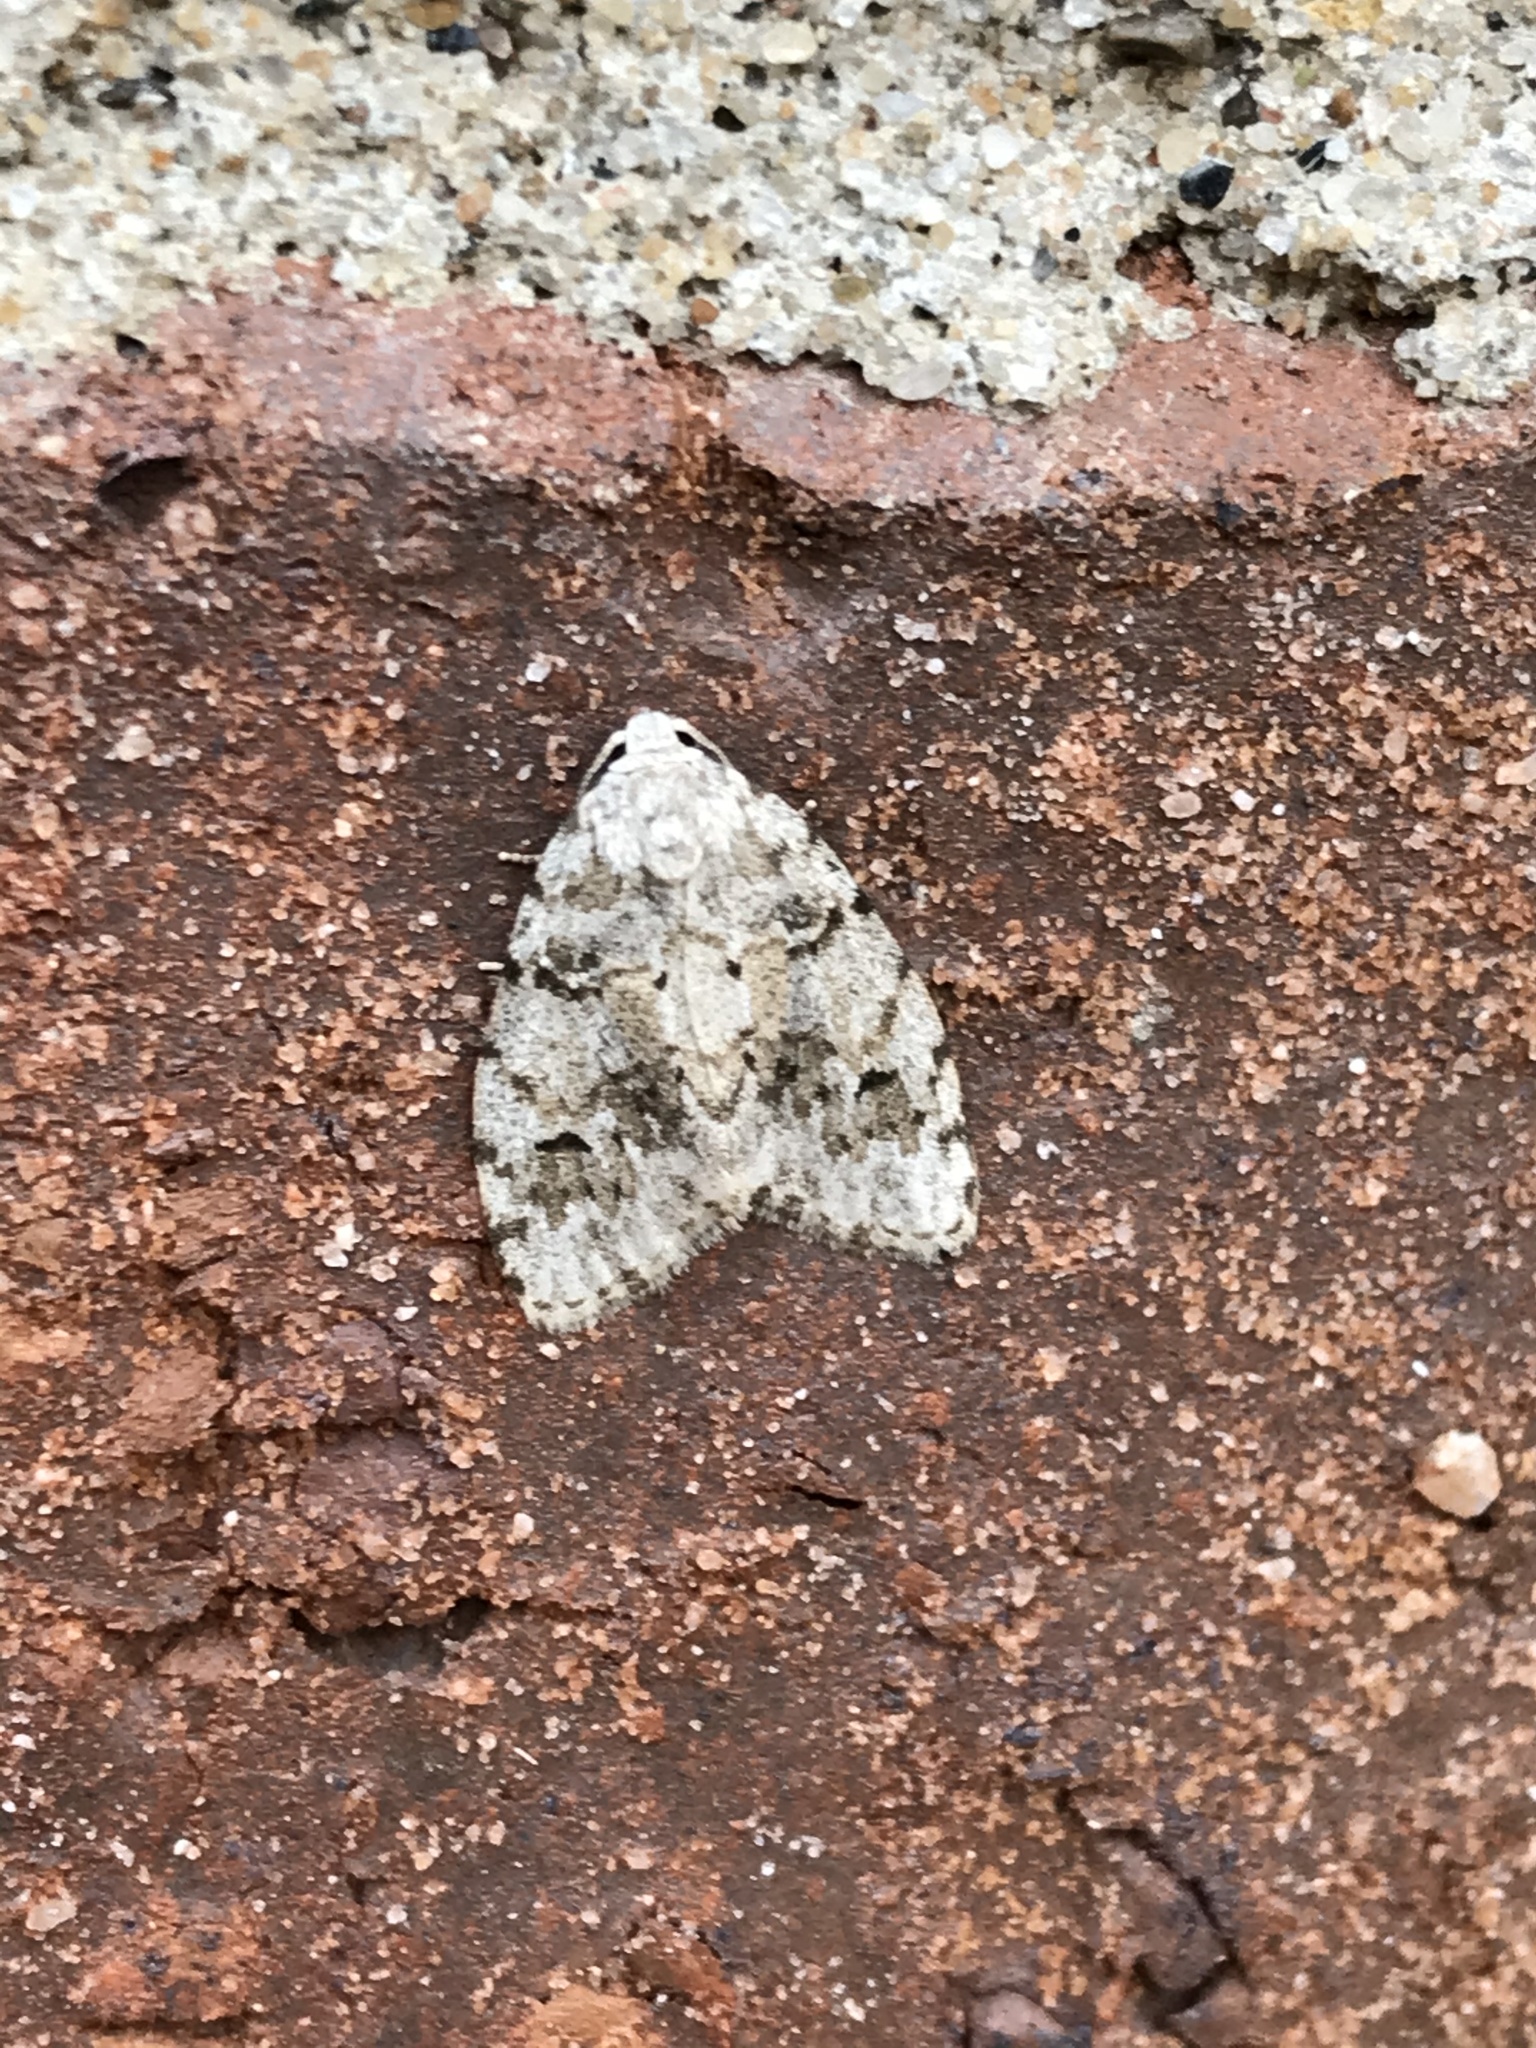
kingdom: Animalia
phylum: Arthropoda
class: Insecta
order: Lepidoptera
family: Erebidae
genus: Clemensia
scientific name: Clemensia albata
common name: Little white lichen moth
